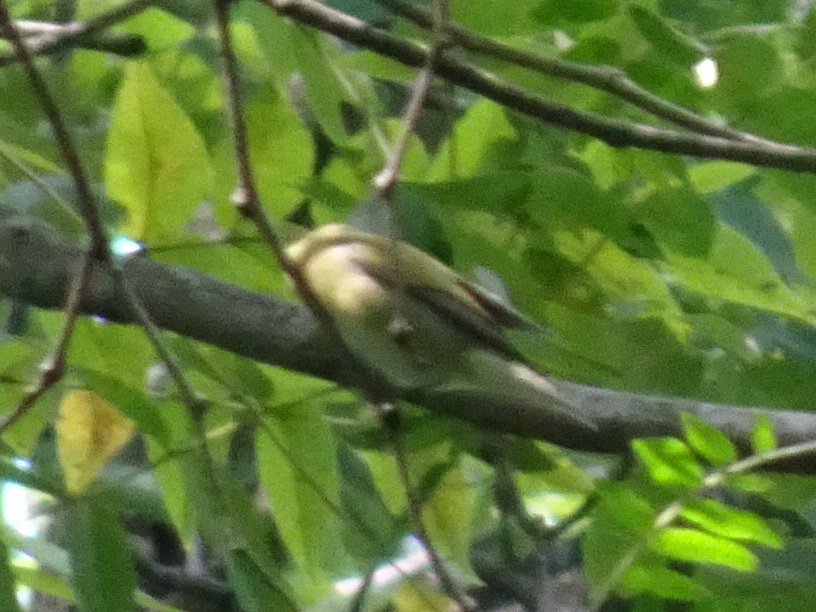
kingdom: Animalia
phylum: Chordata
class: Aves
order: Passeriformes
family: Parulidae
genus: Leiothlypis
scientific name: Leiothlypis peregrina
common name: Tennessee warbler
